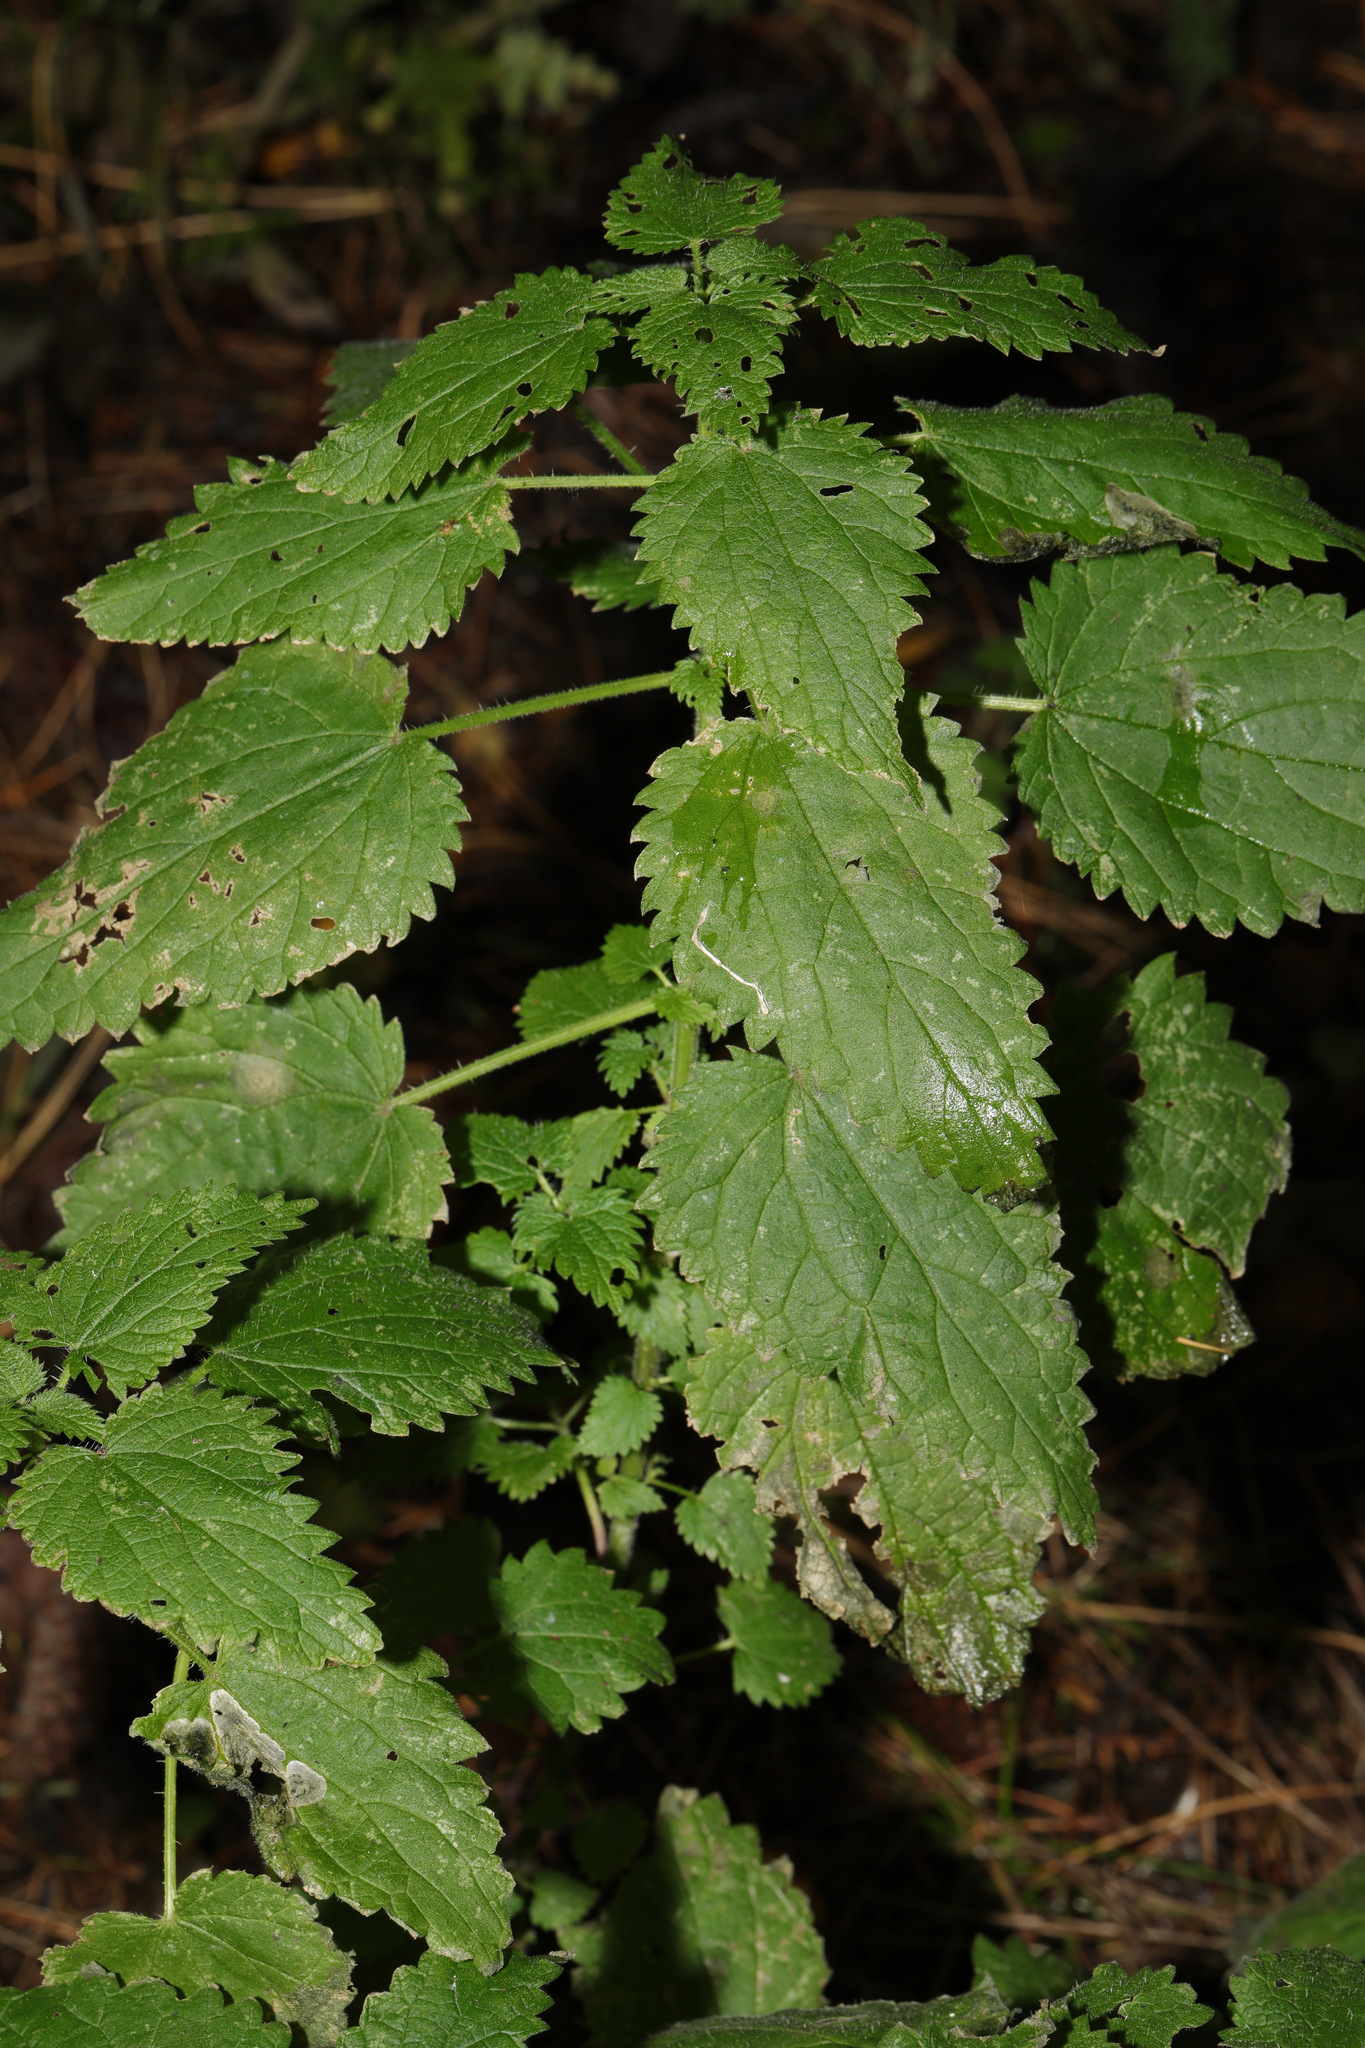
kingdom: Plantae
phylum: Tracheophyta
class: Magnoliopsida
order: Rosales
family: Urticaceae
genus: Urtica
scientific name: Urtica dioica
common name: Common nettle
